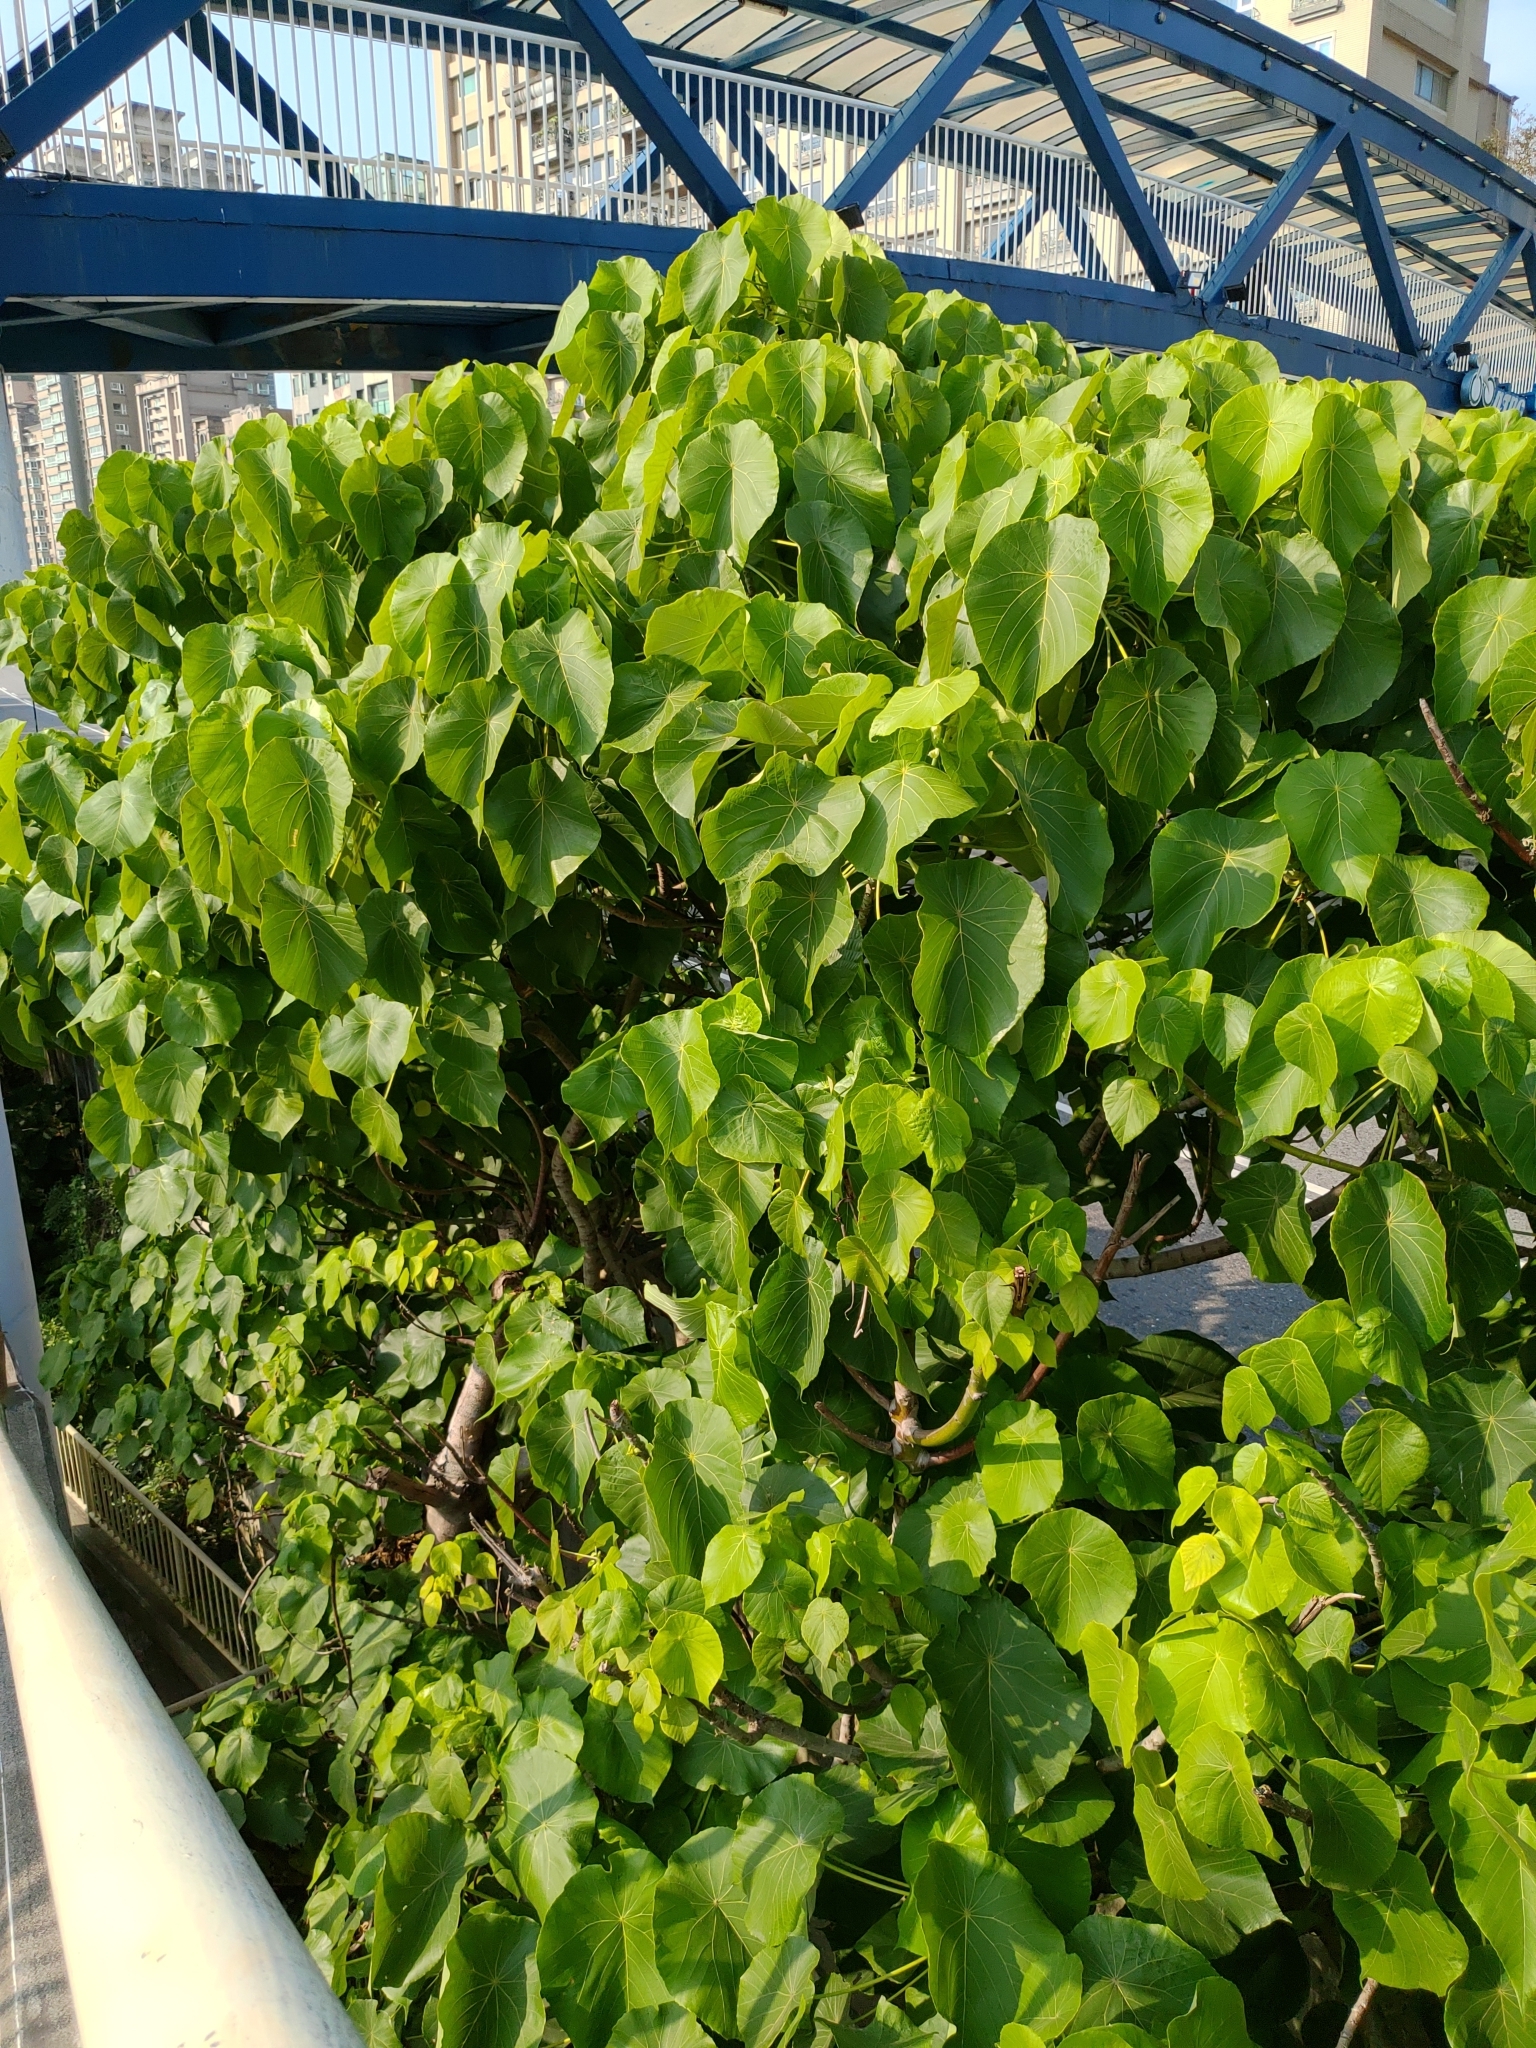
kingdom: Plantae
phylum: Tracheophyta
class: Magnoliopsida
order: Malpighiales
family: Euphorbiaceae
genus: Macaranga
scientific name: Macaranga tanarius
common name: Parasol leaf tree
